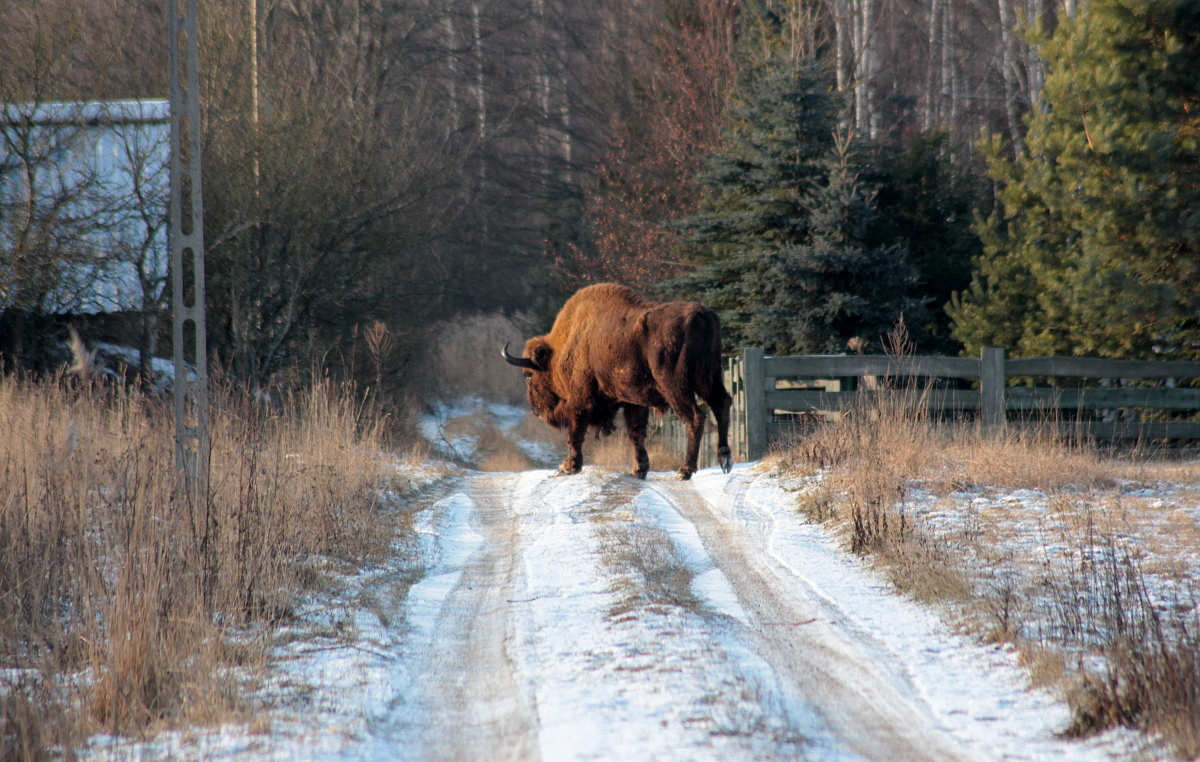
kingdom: Animalia
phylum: Chordata
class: Mammalia
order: Artiodactyla
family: Bovidae
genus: Bison
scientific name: Bison bonasus
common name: European bison
